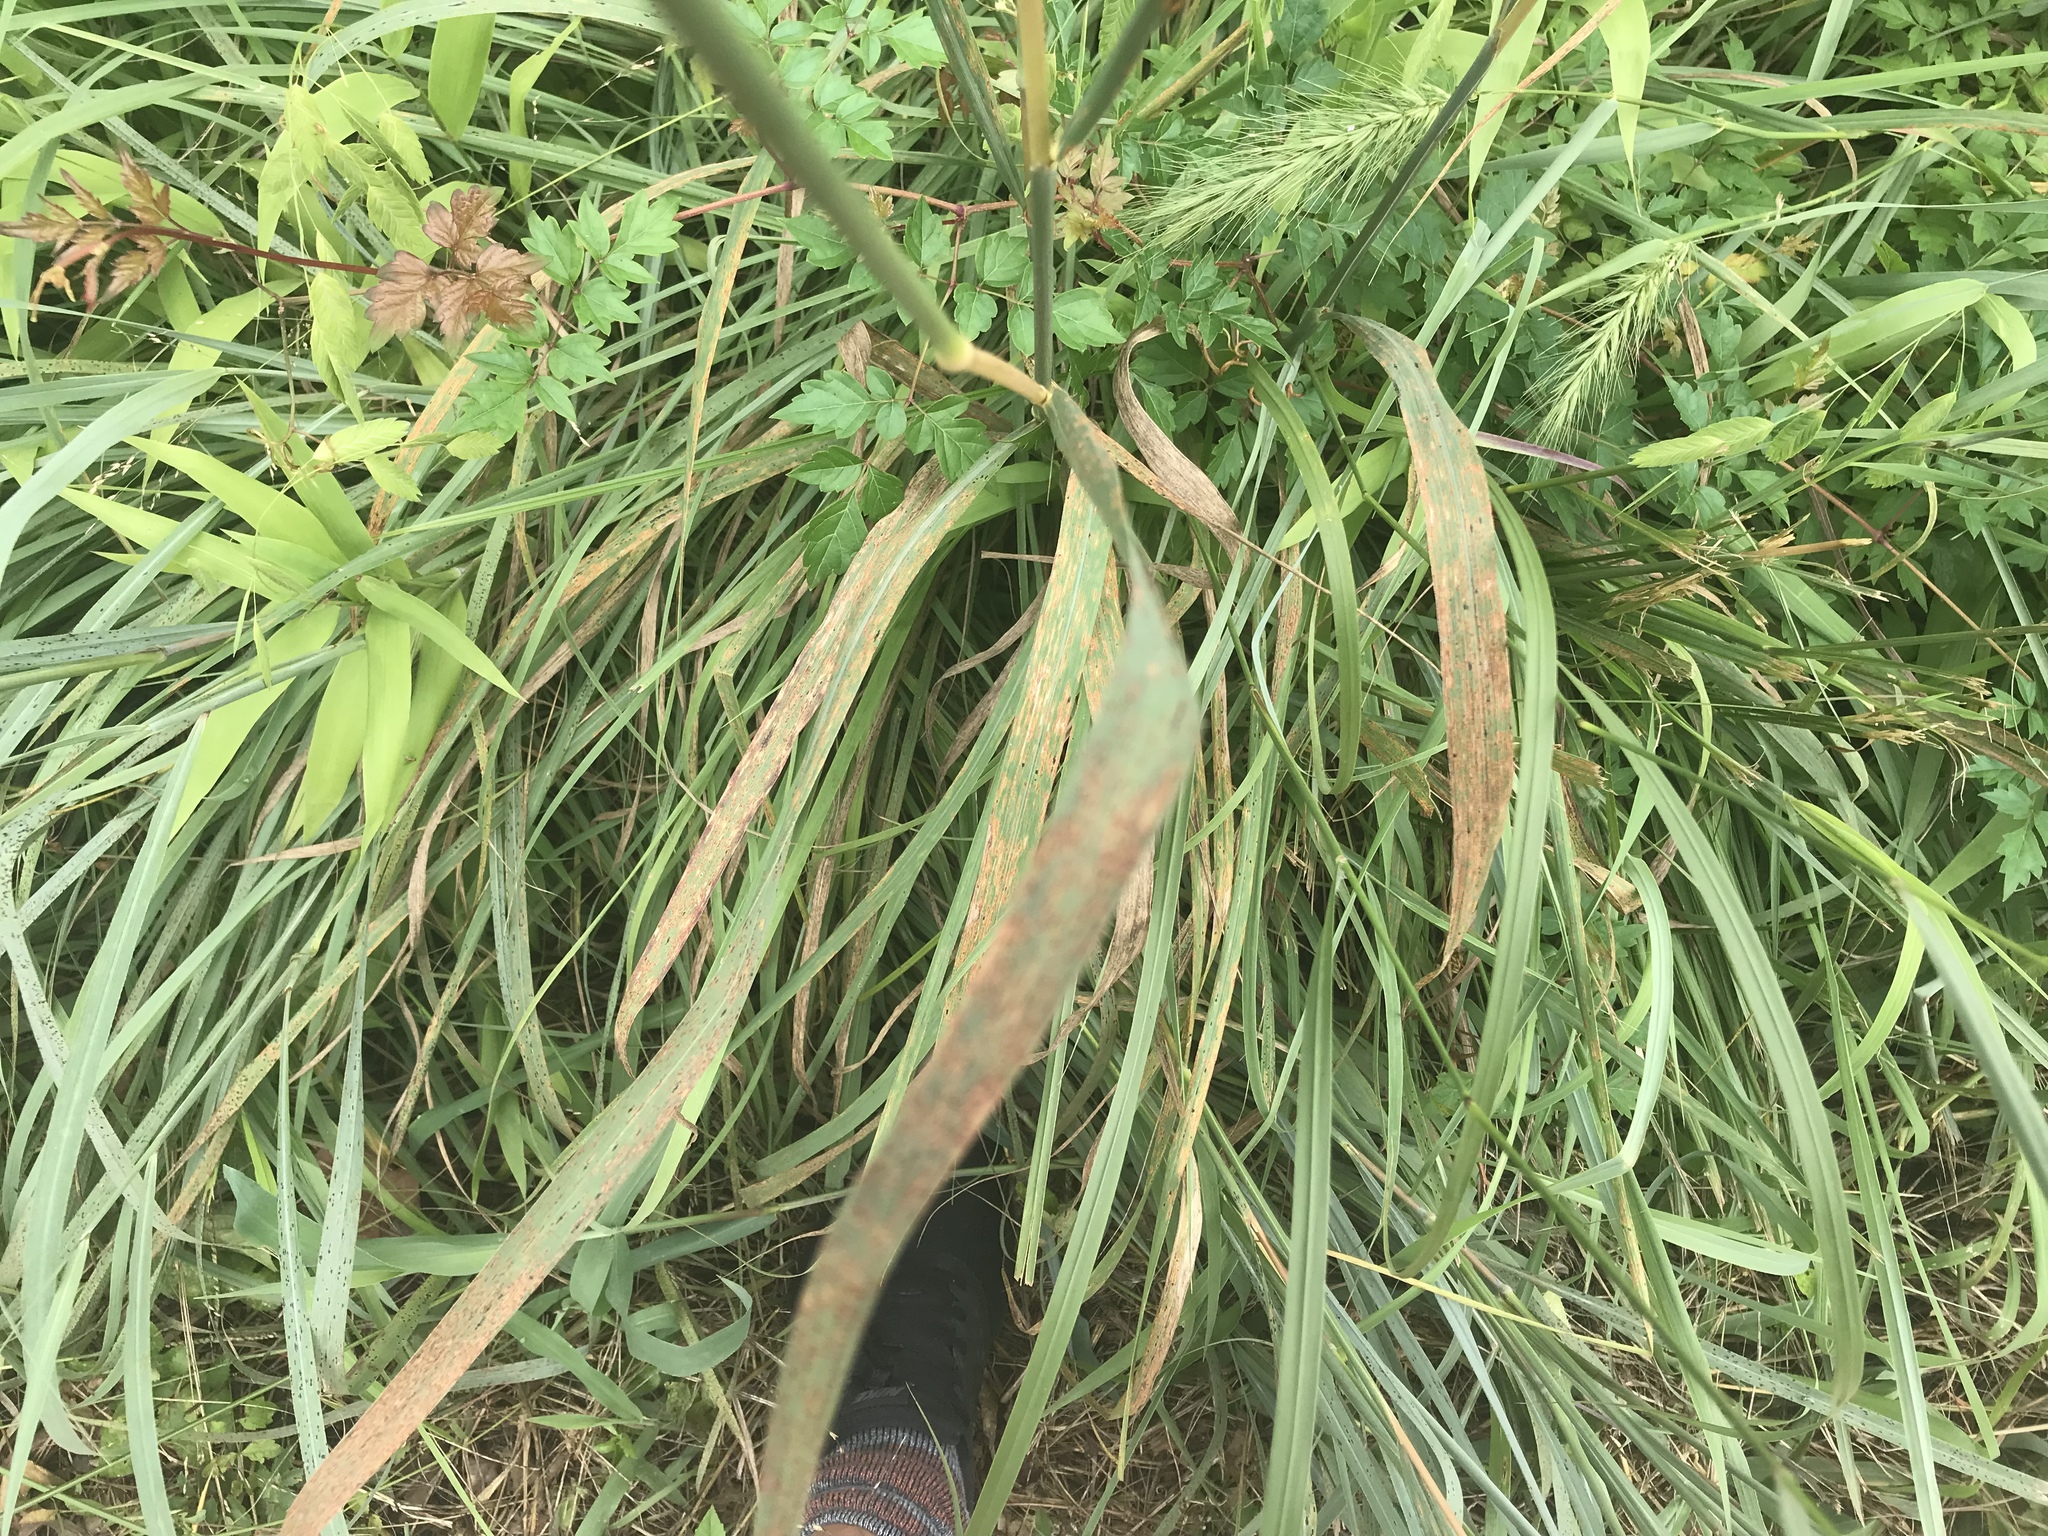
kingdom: Plantae
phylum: Tracheophyta
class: Liliopsida
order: Poales
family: Poaceae
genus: Sorghastrum
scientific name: Sorghastrum nutans
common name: Indian grass
